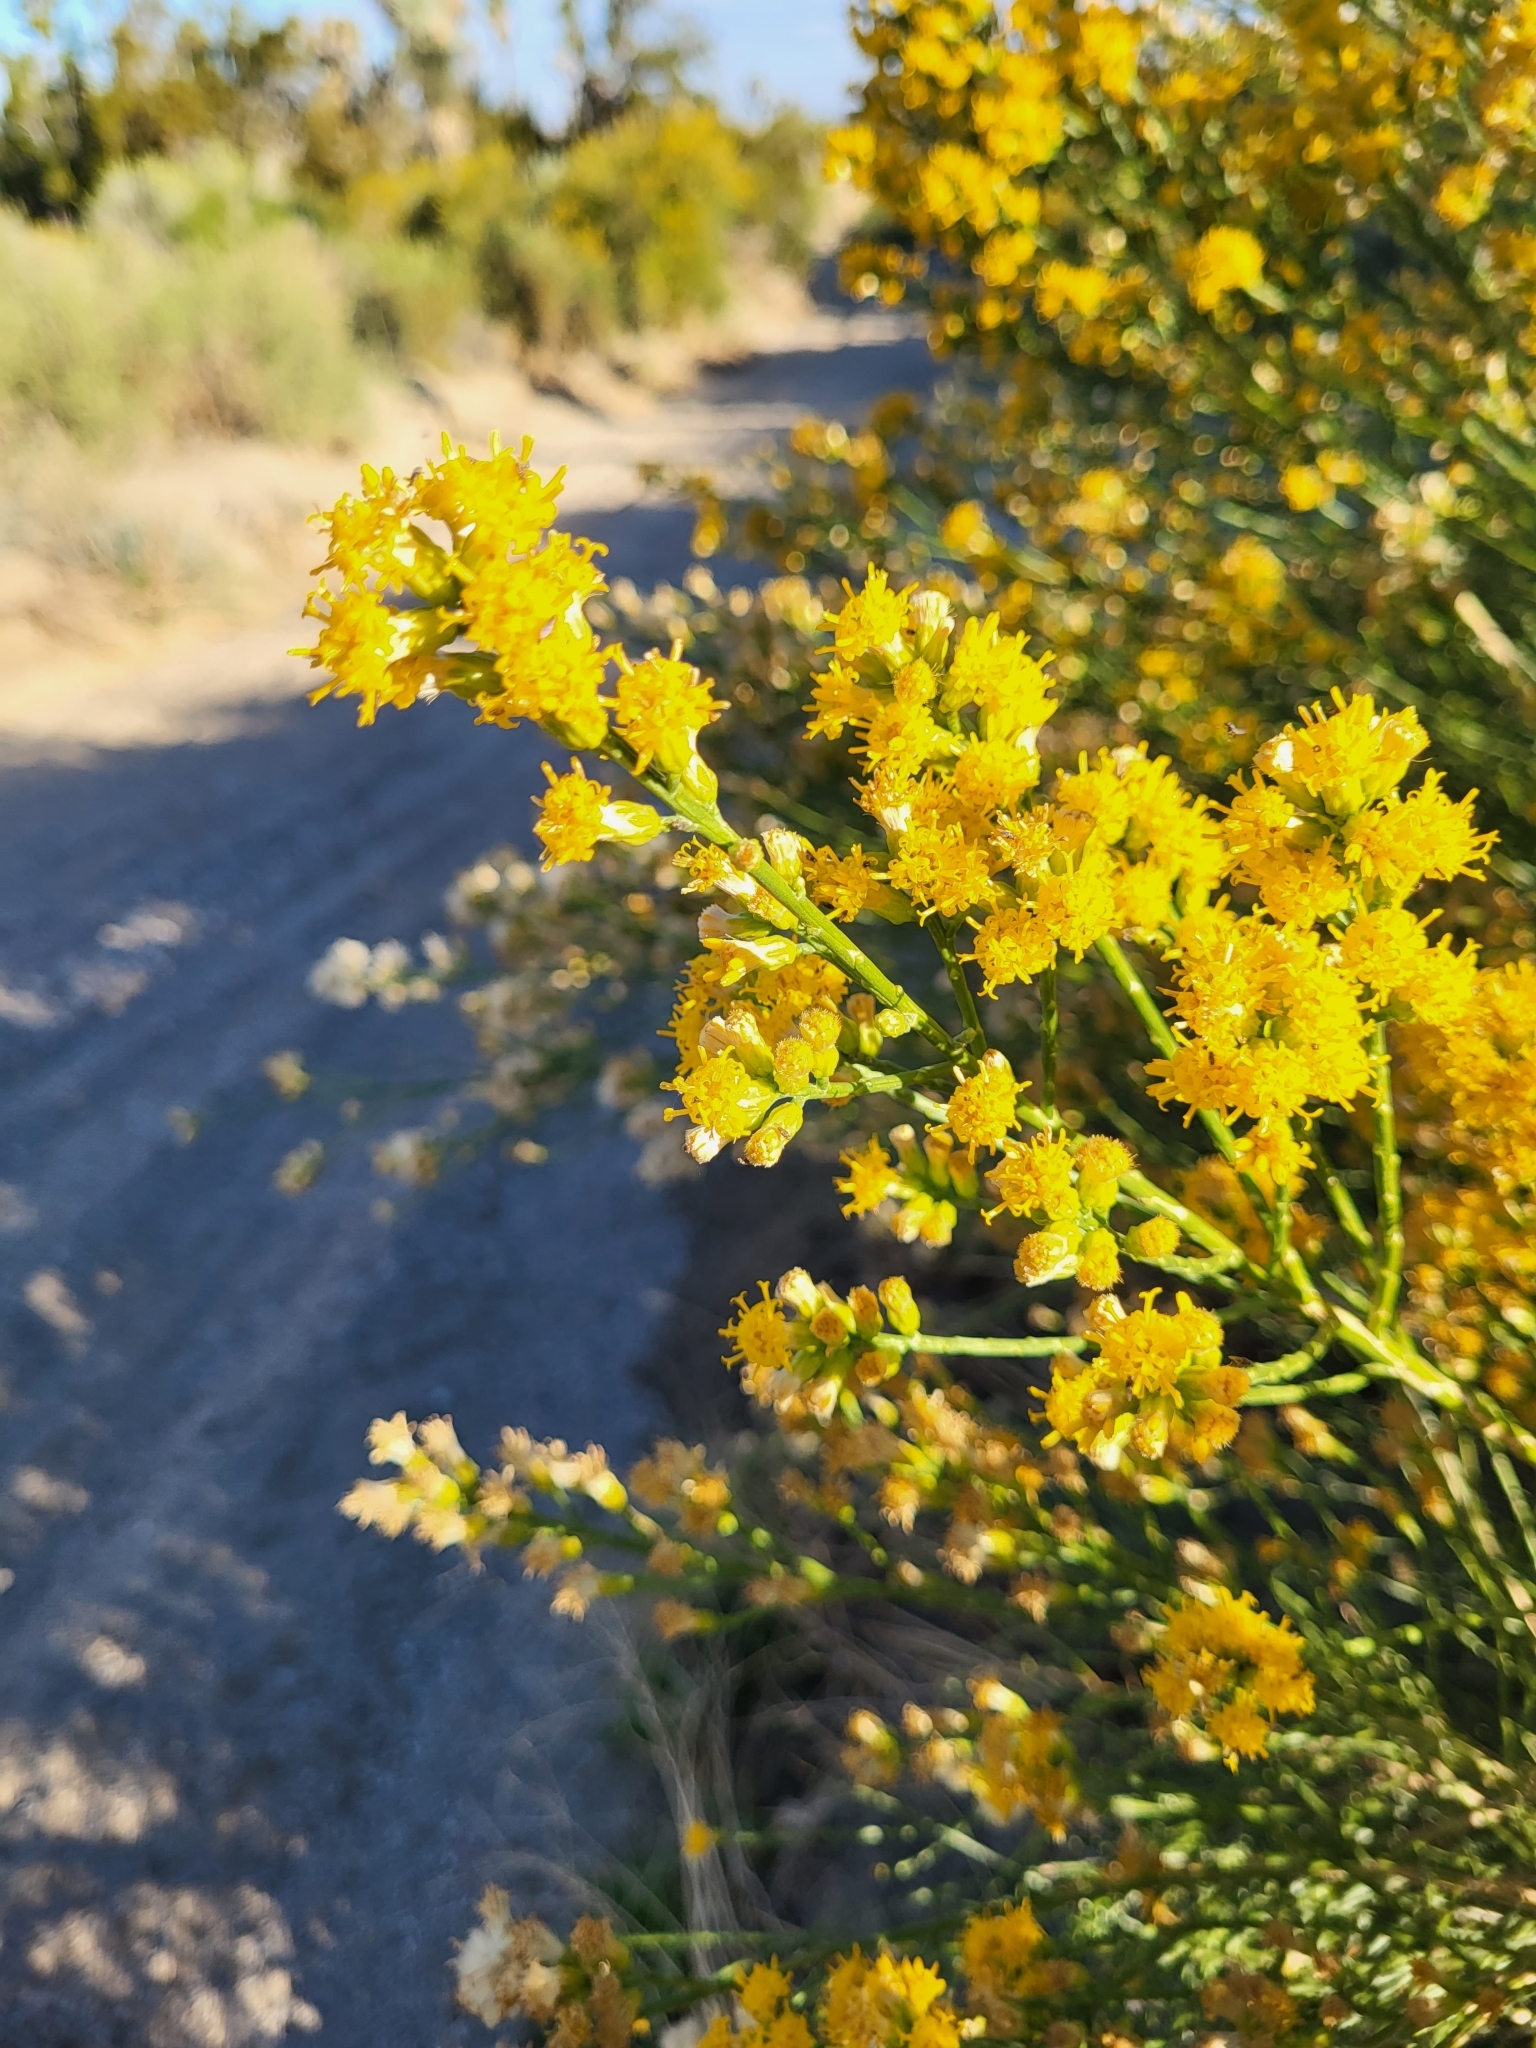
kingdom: Plantae
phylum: Tracheophyta
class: Magnoliopsida
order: Asterales
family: Asteraceae
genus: Lepidospartum
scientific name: Lepidospartum squamatum
